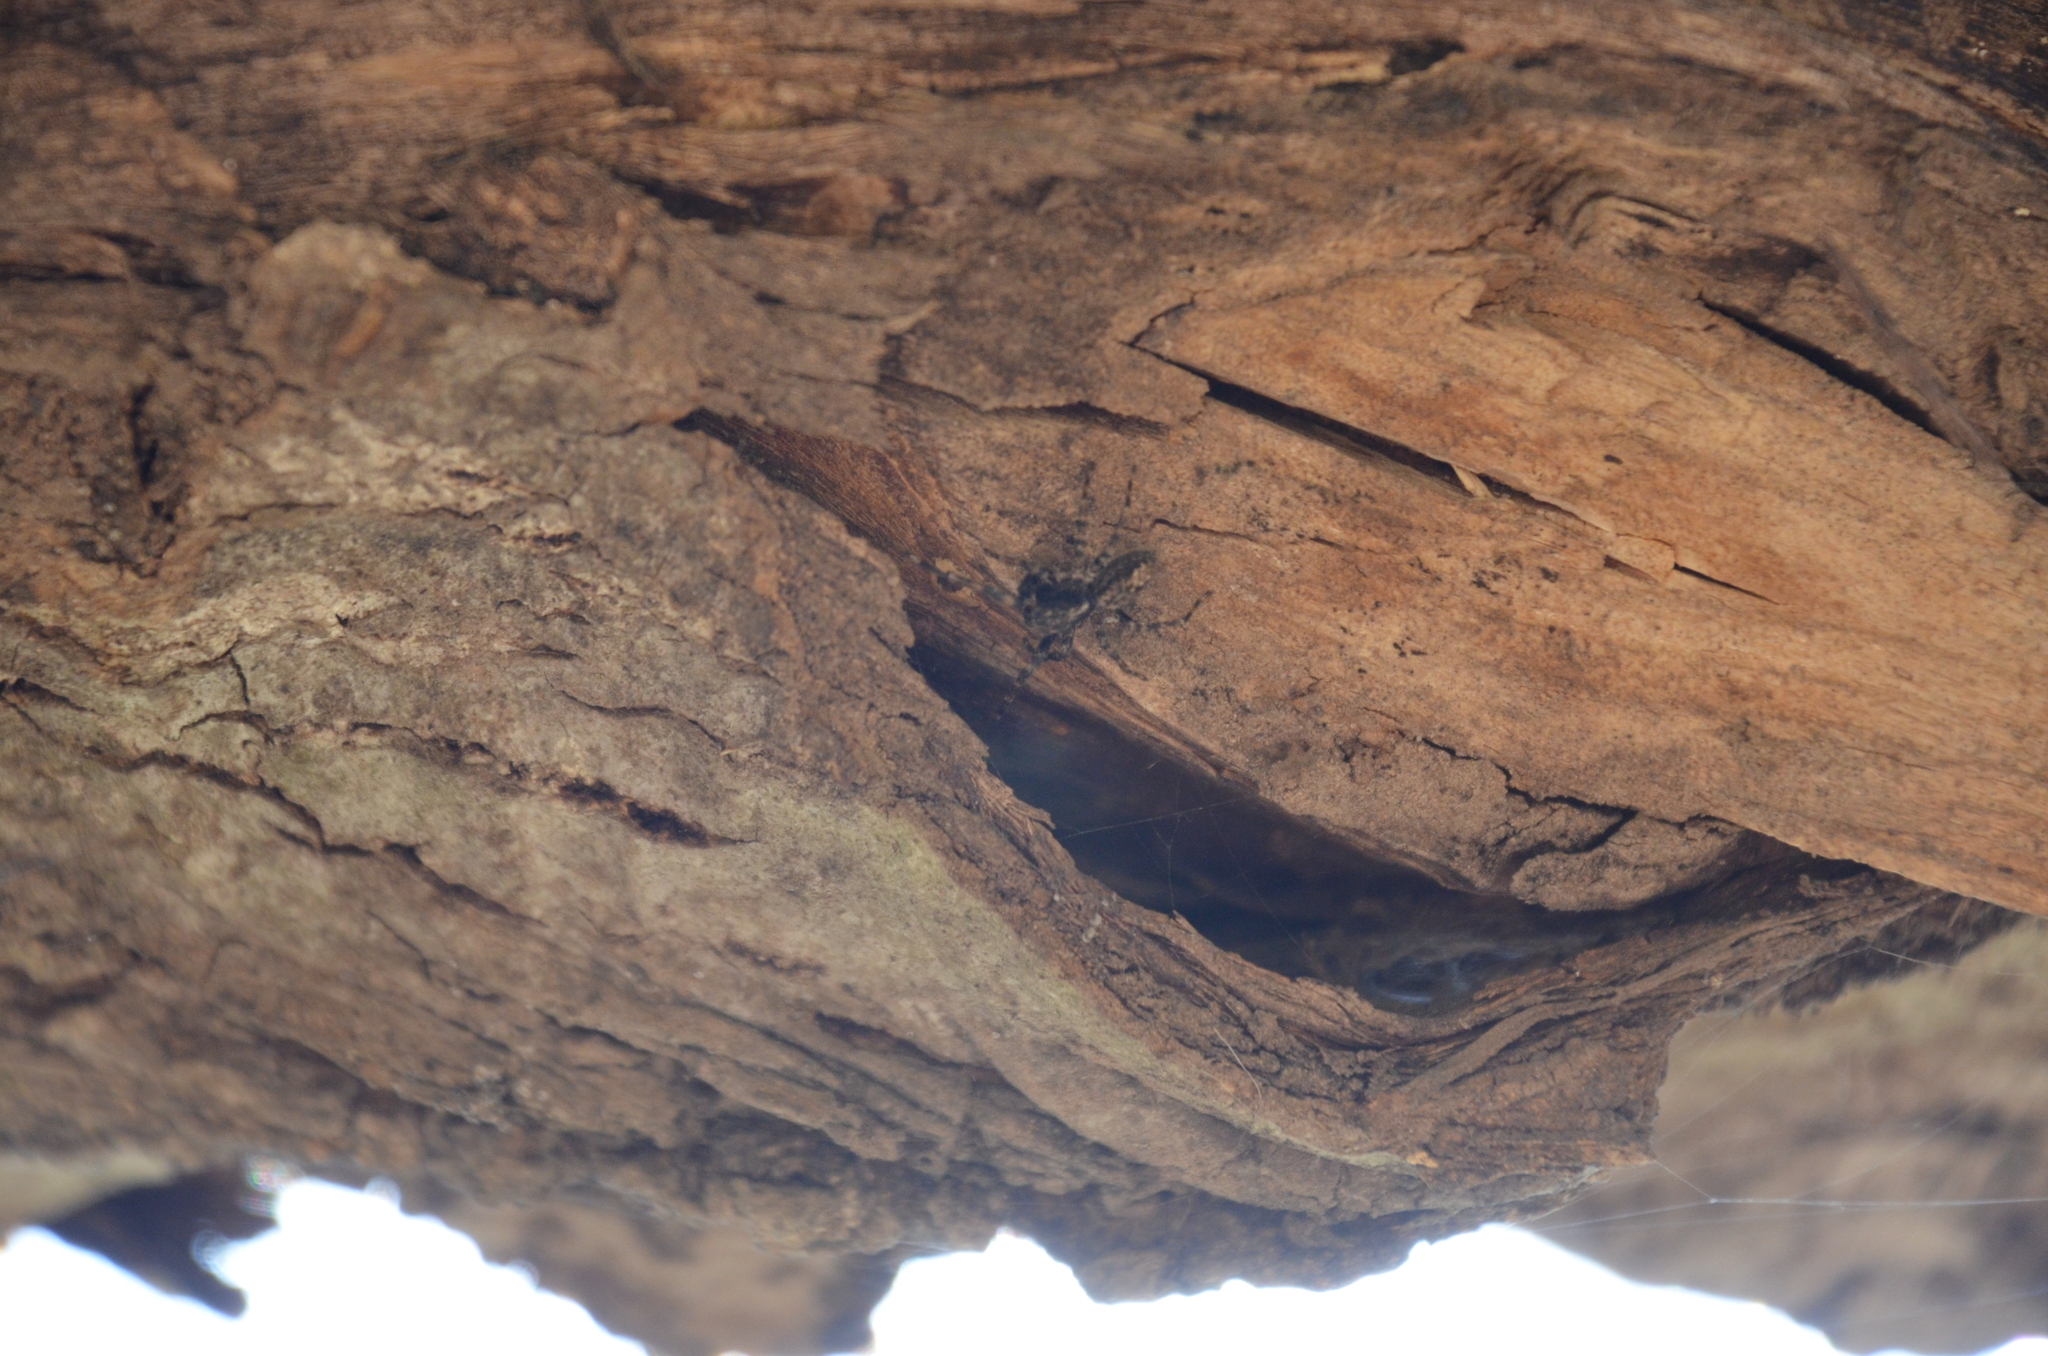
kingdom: Animalia
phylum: Arthropoda
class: Arachnida
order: Araneae
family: Salticidae
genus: Titanattus
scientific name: Titanattus andinus
